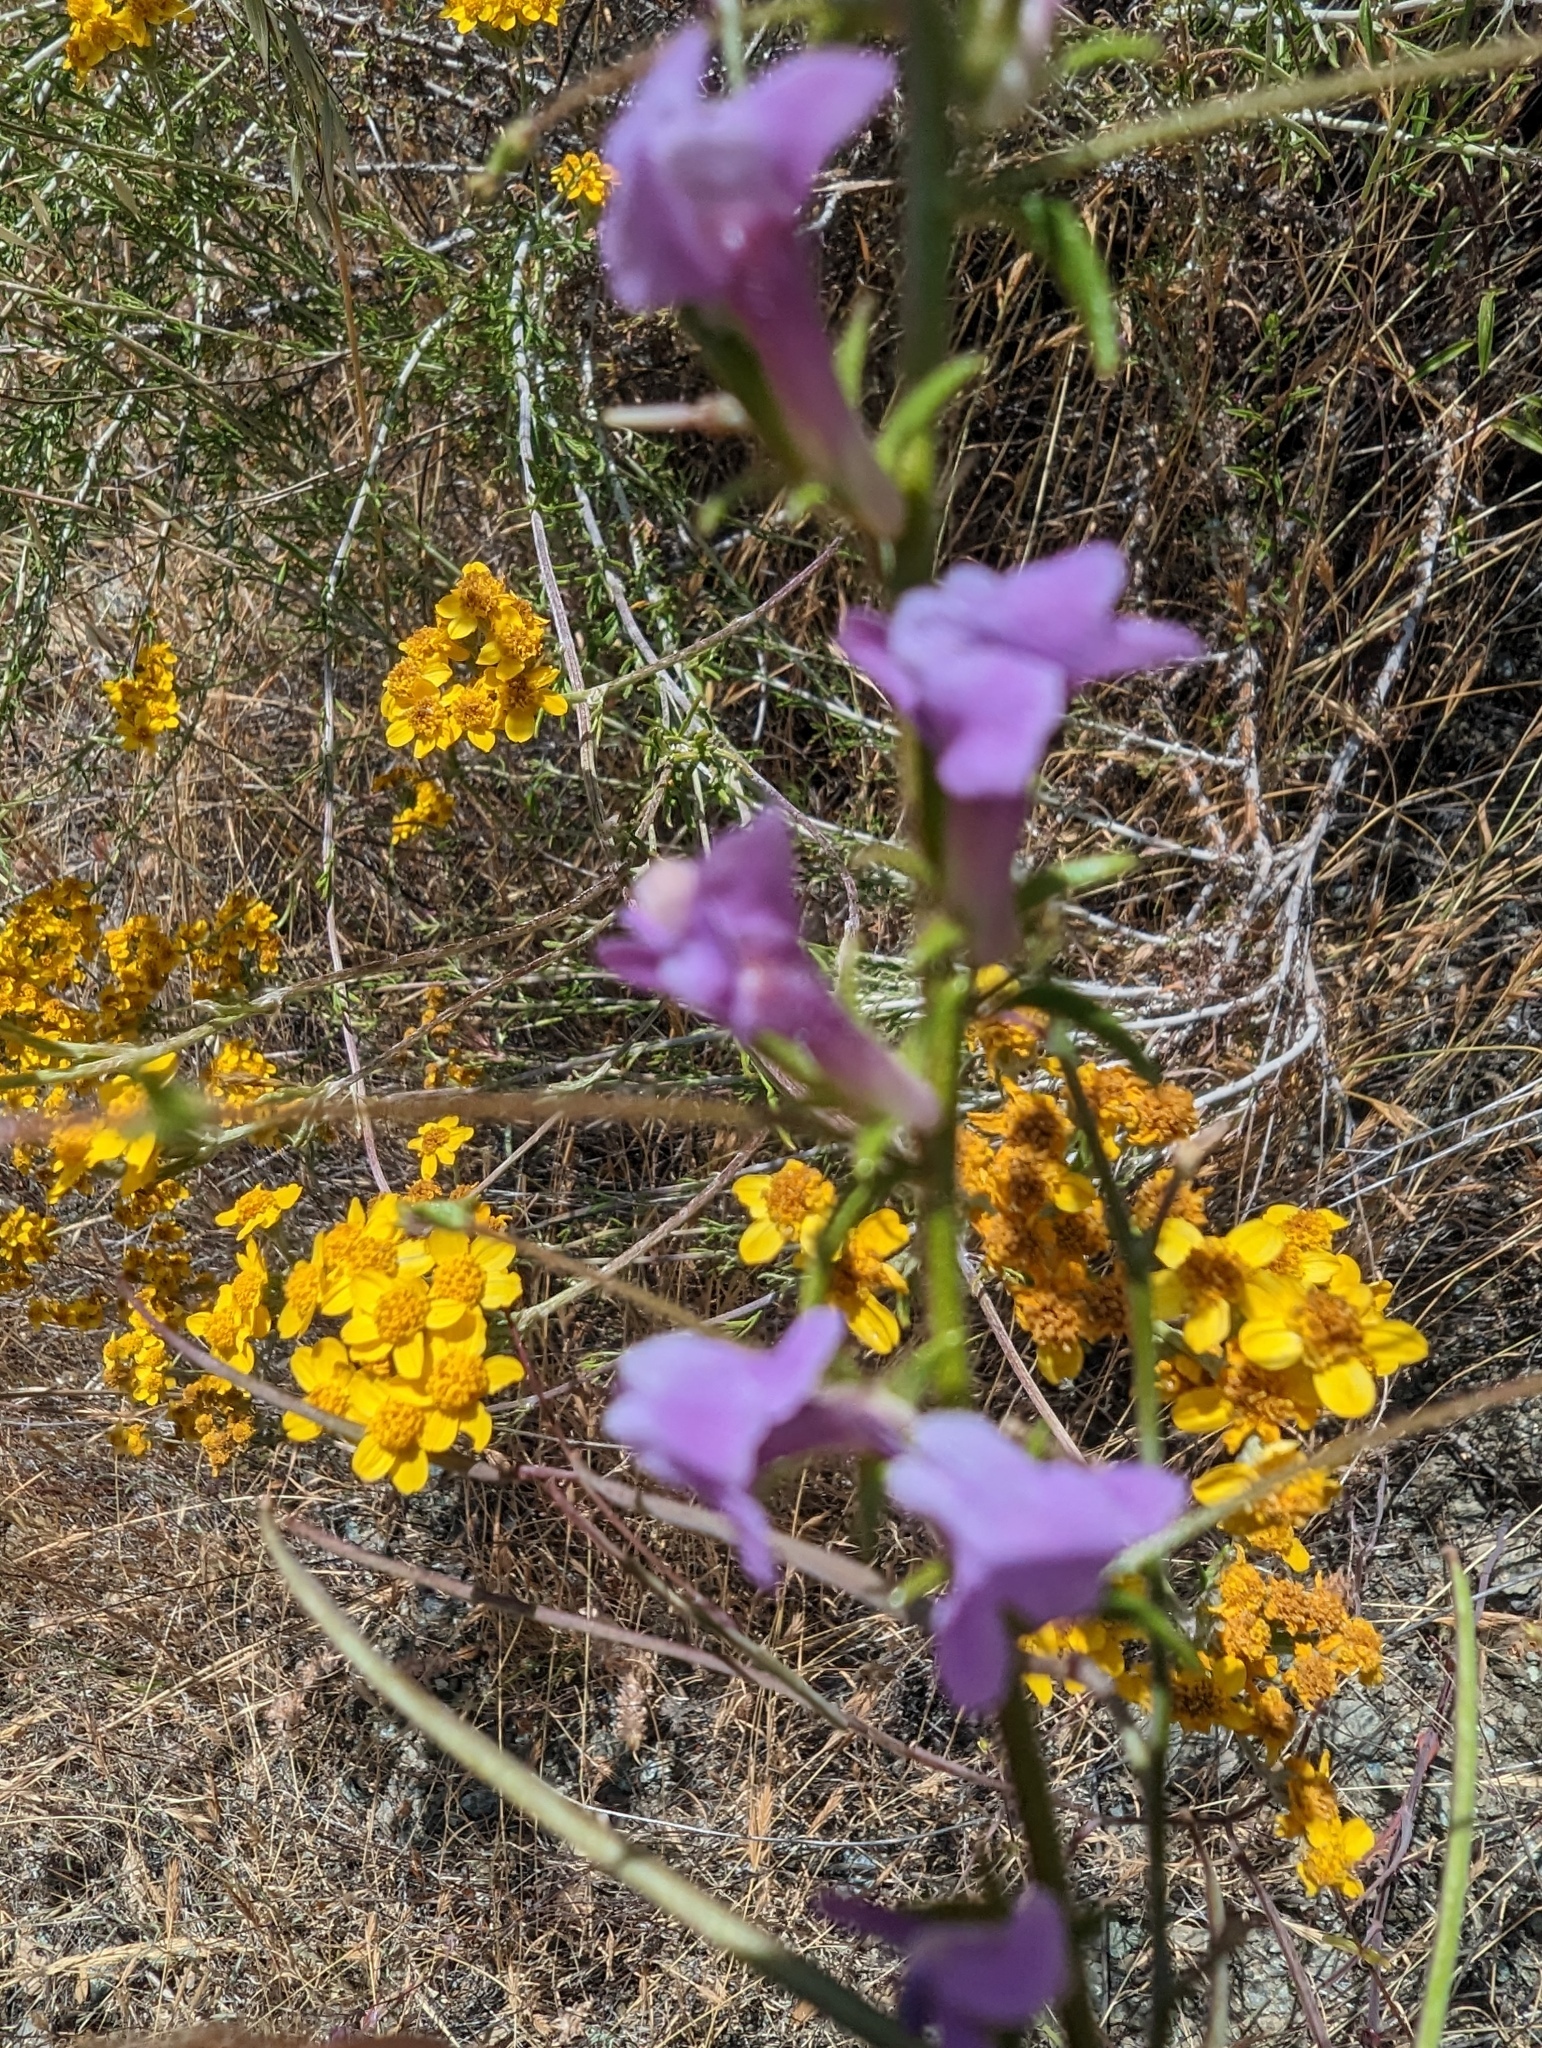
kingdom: Plantae
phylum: Tracheophyta
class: Magnoliopsida
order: Lamiales
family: Plantaginaceae
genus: Sairocarpus
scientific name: Sairocarpus vexillocalyculatus
